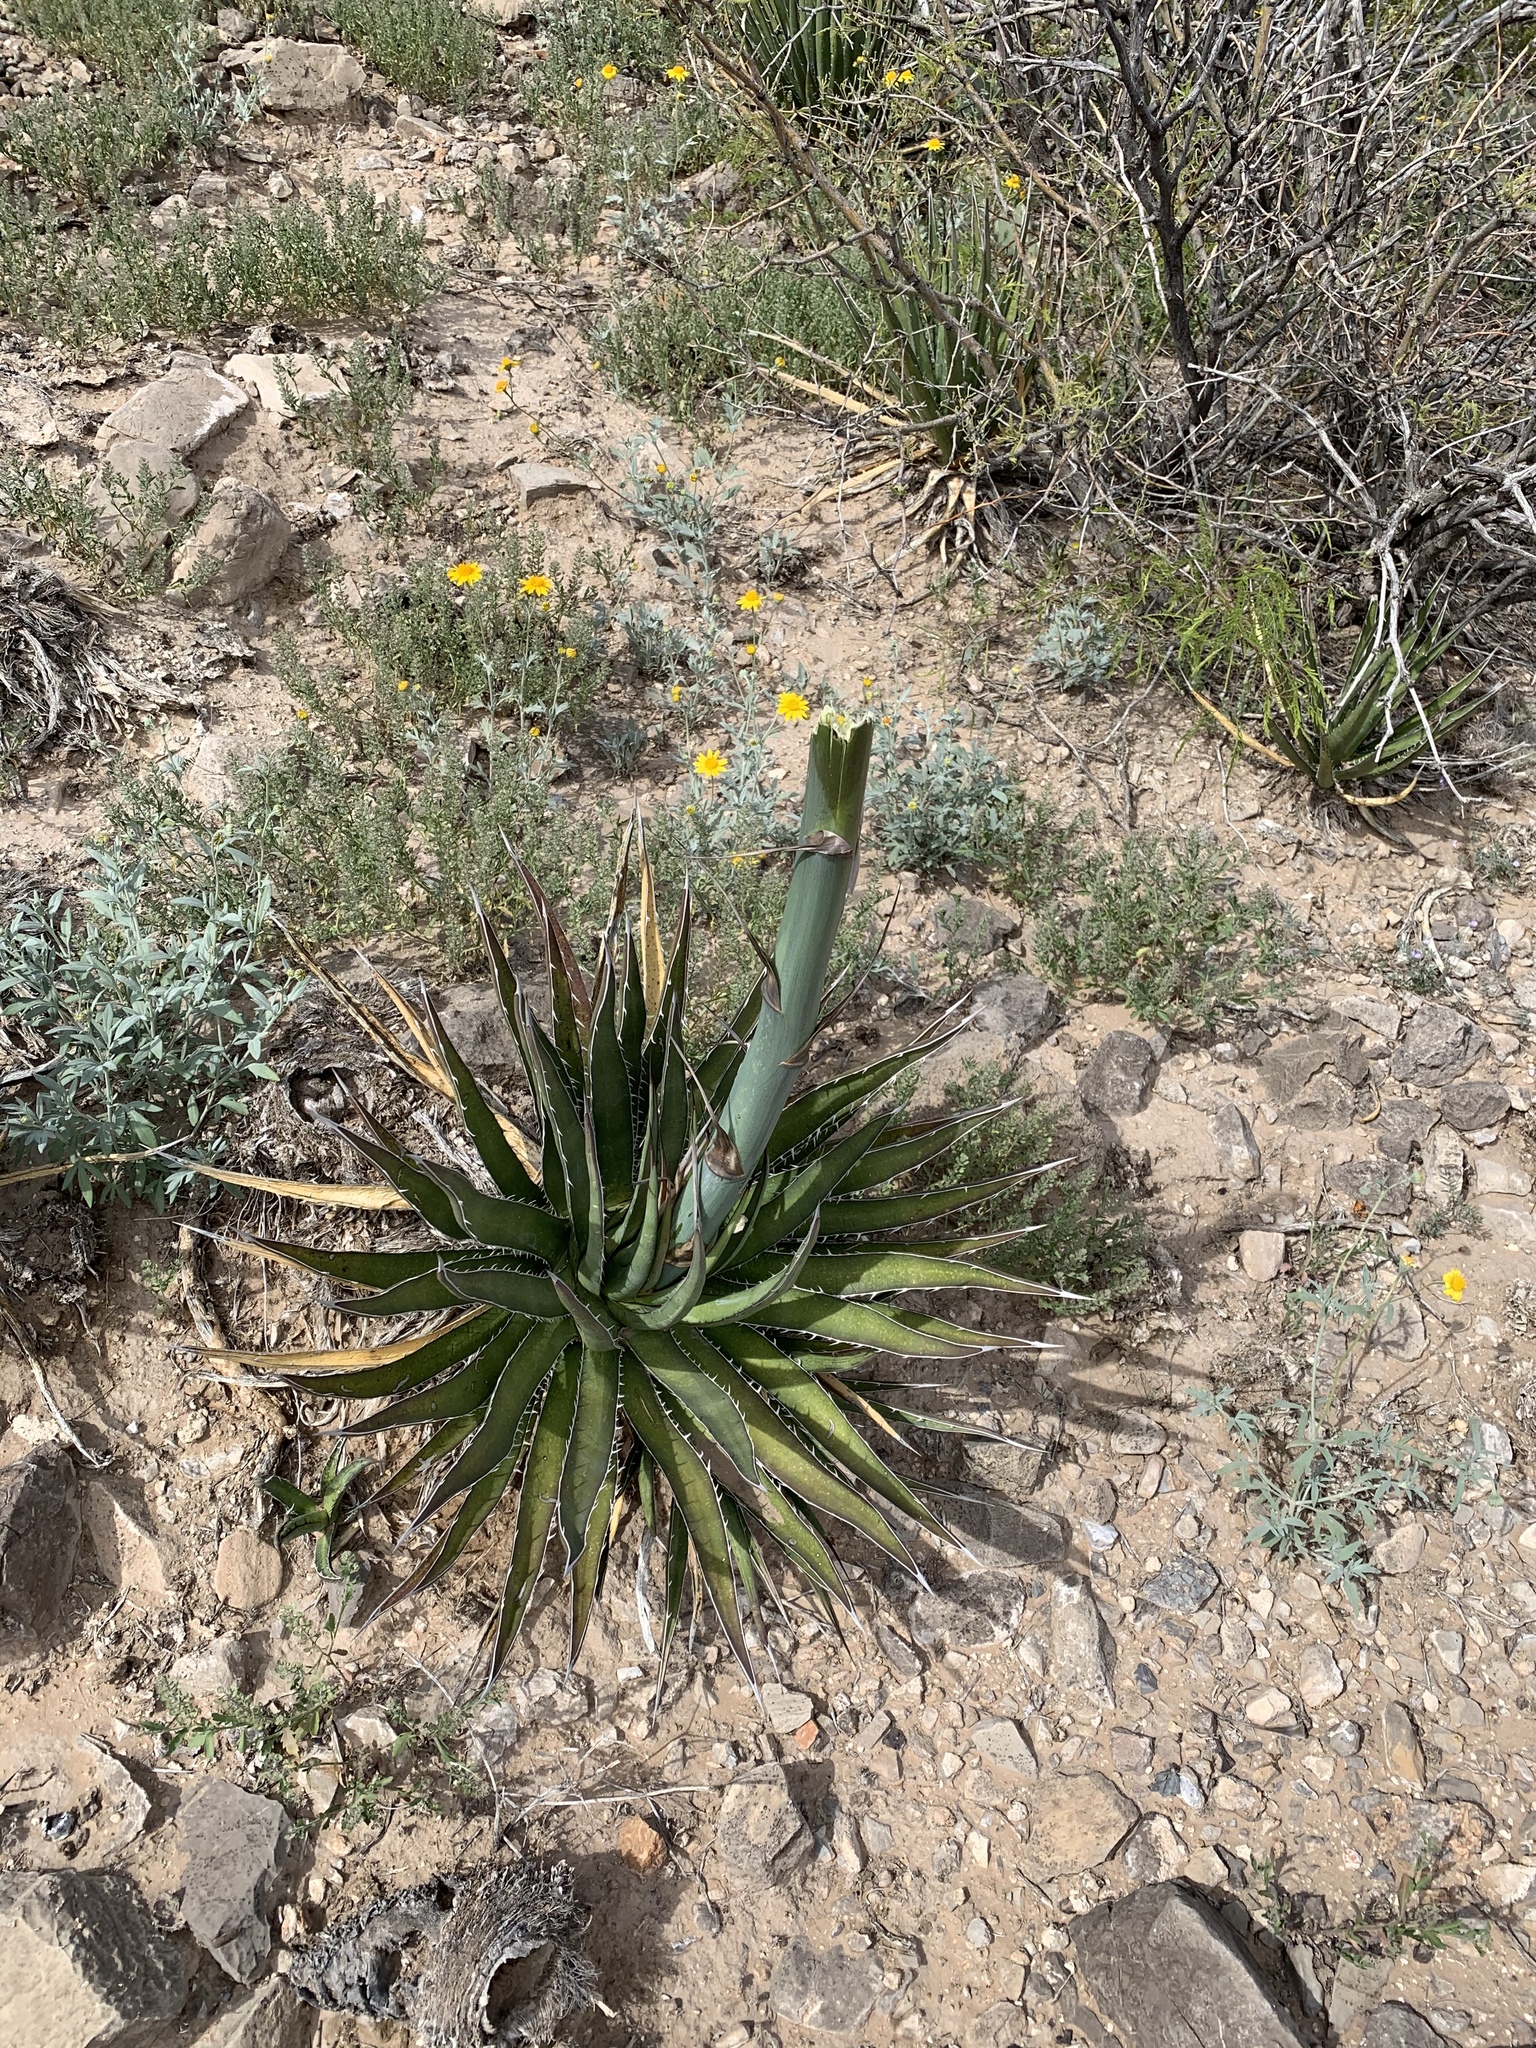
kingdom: Plantae
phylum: Tracheophyta
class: Liliopsida
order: Asparagales
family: Asparagaceae
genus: Agave
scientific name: Agave lechuguilla
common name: Lecheguilla agave
